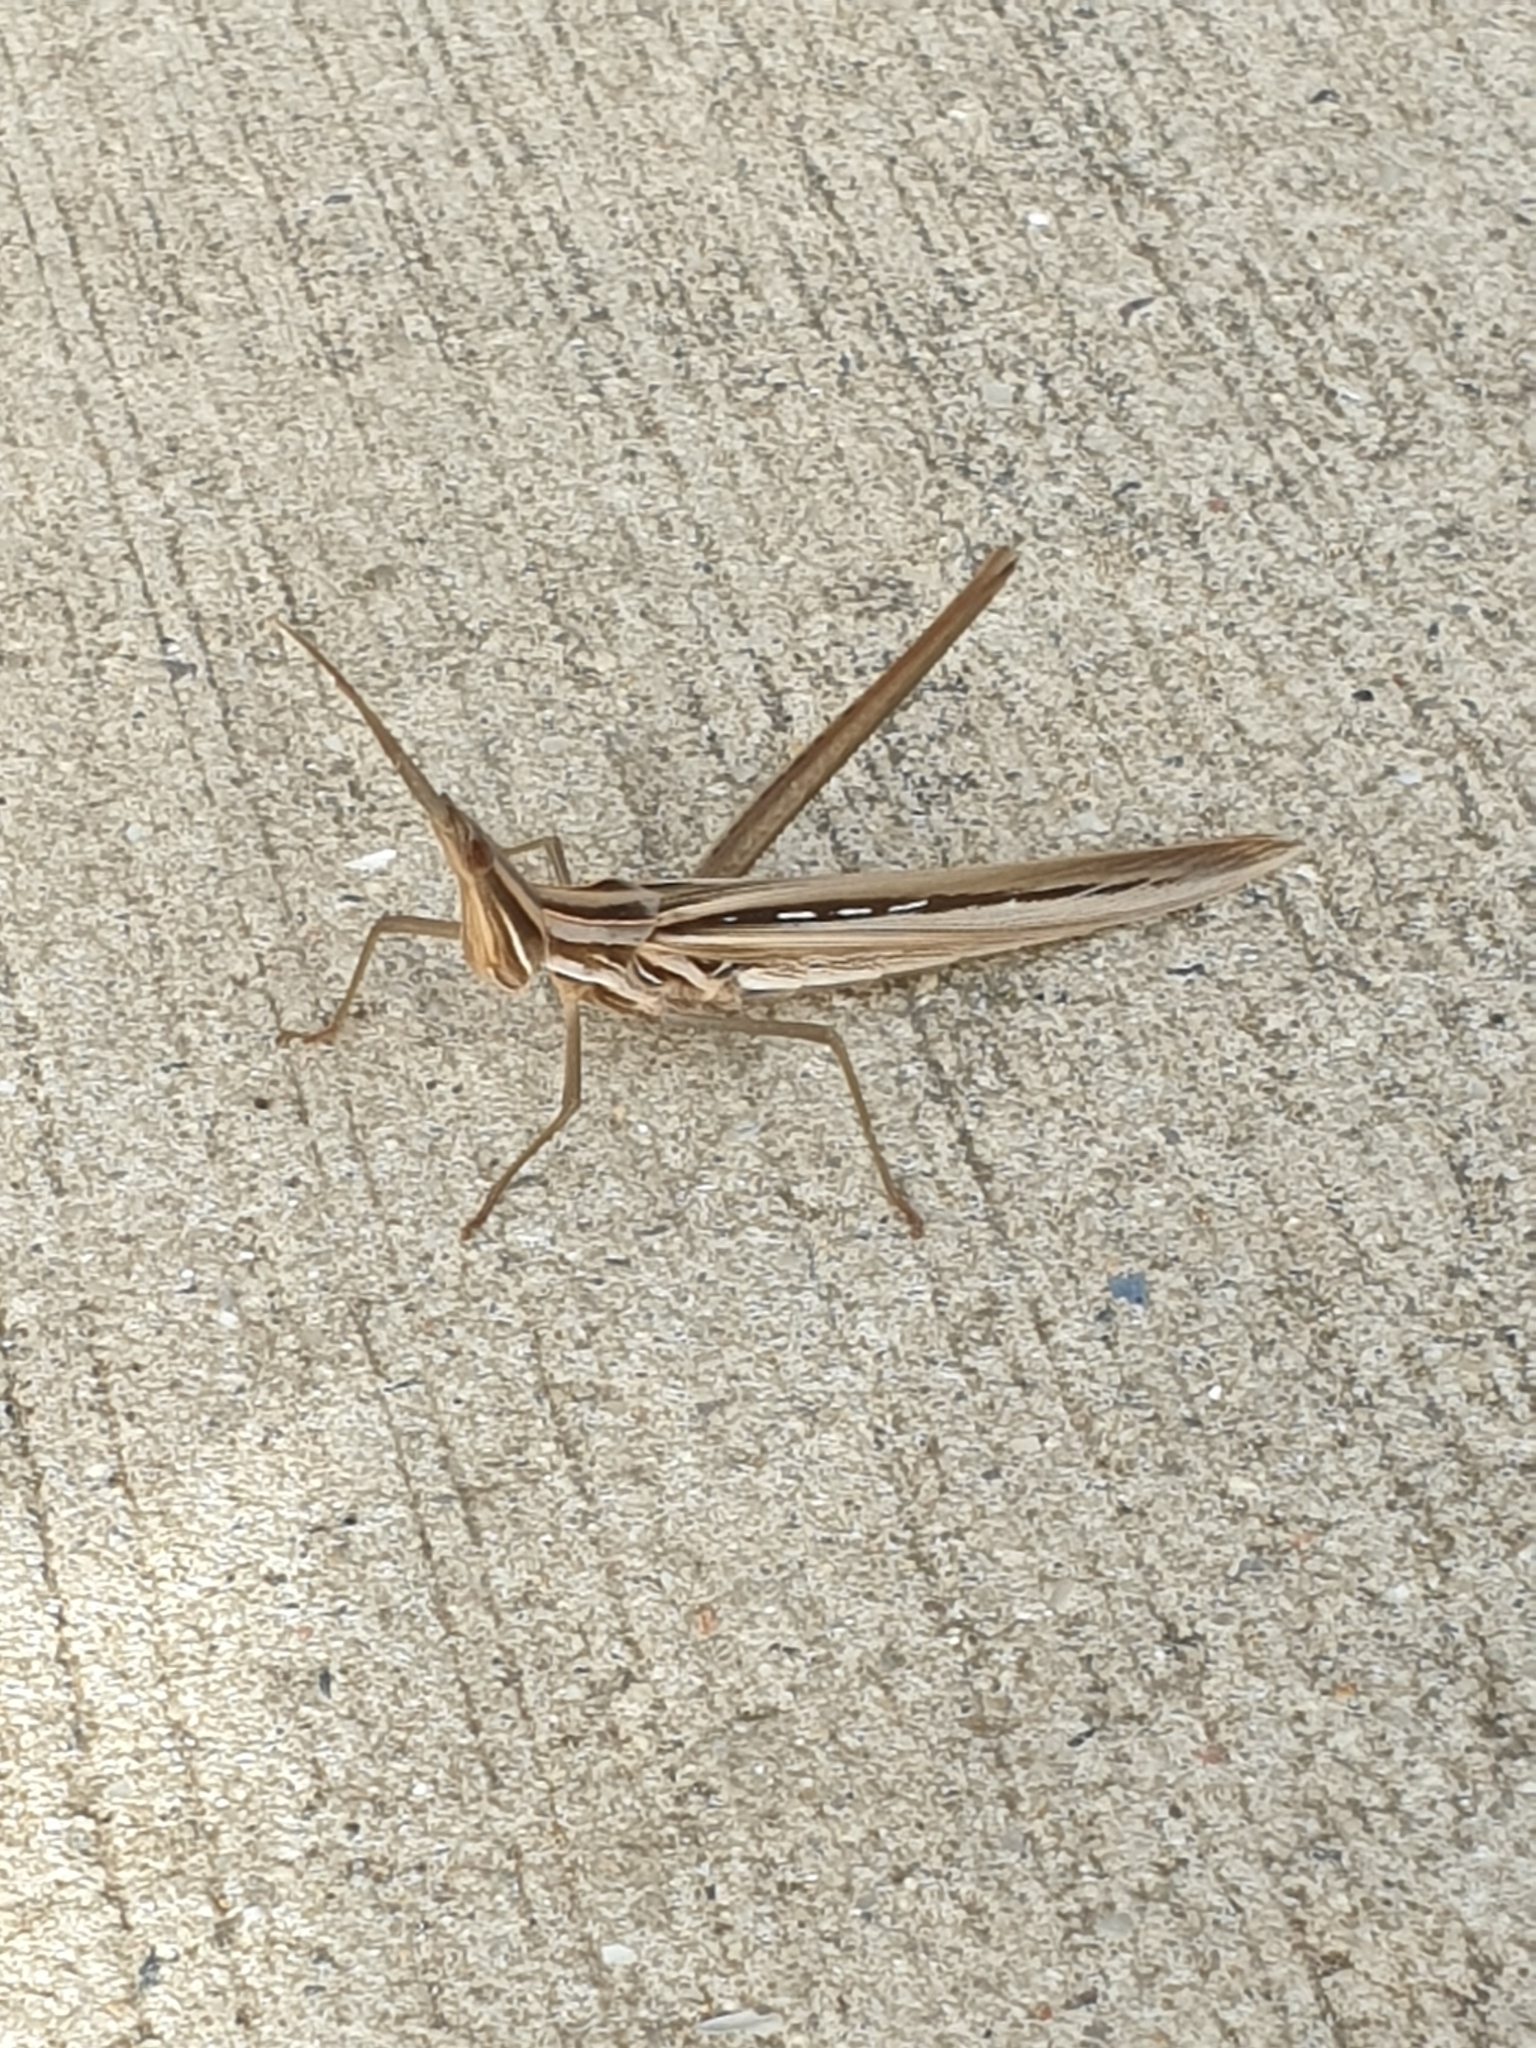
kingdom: Animalia
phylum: Arthropoda
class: Insecta
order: Orthoptera
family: Acrididae
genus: Acrida
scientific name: Acrida conica
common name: Giant green slantface
